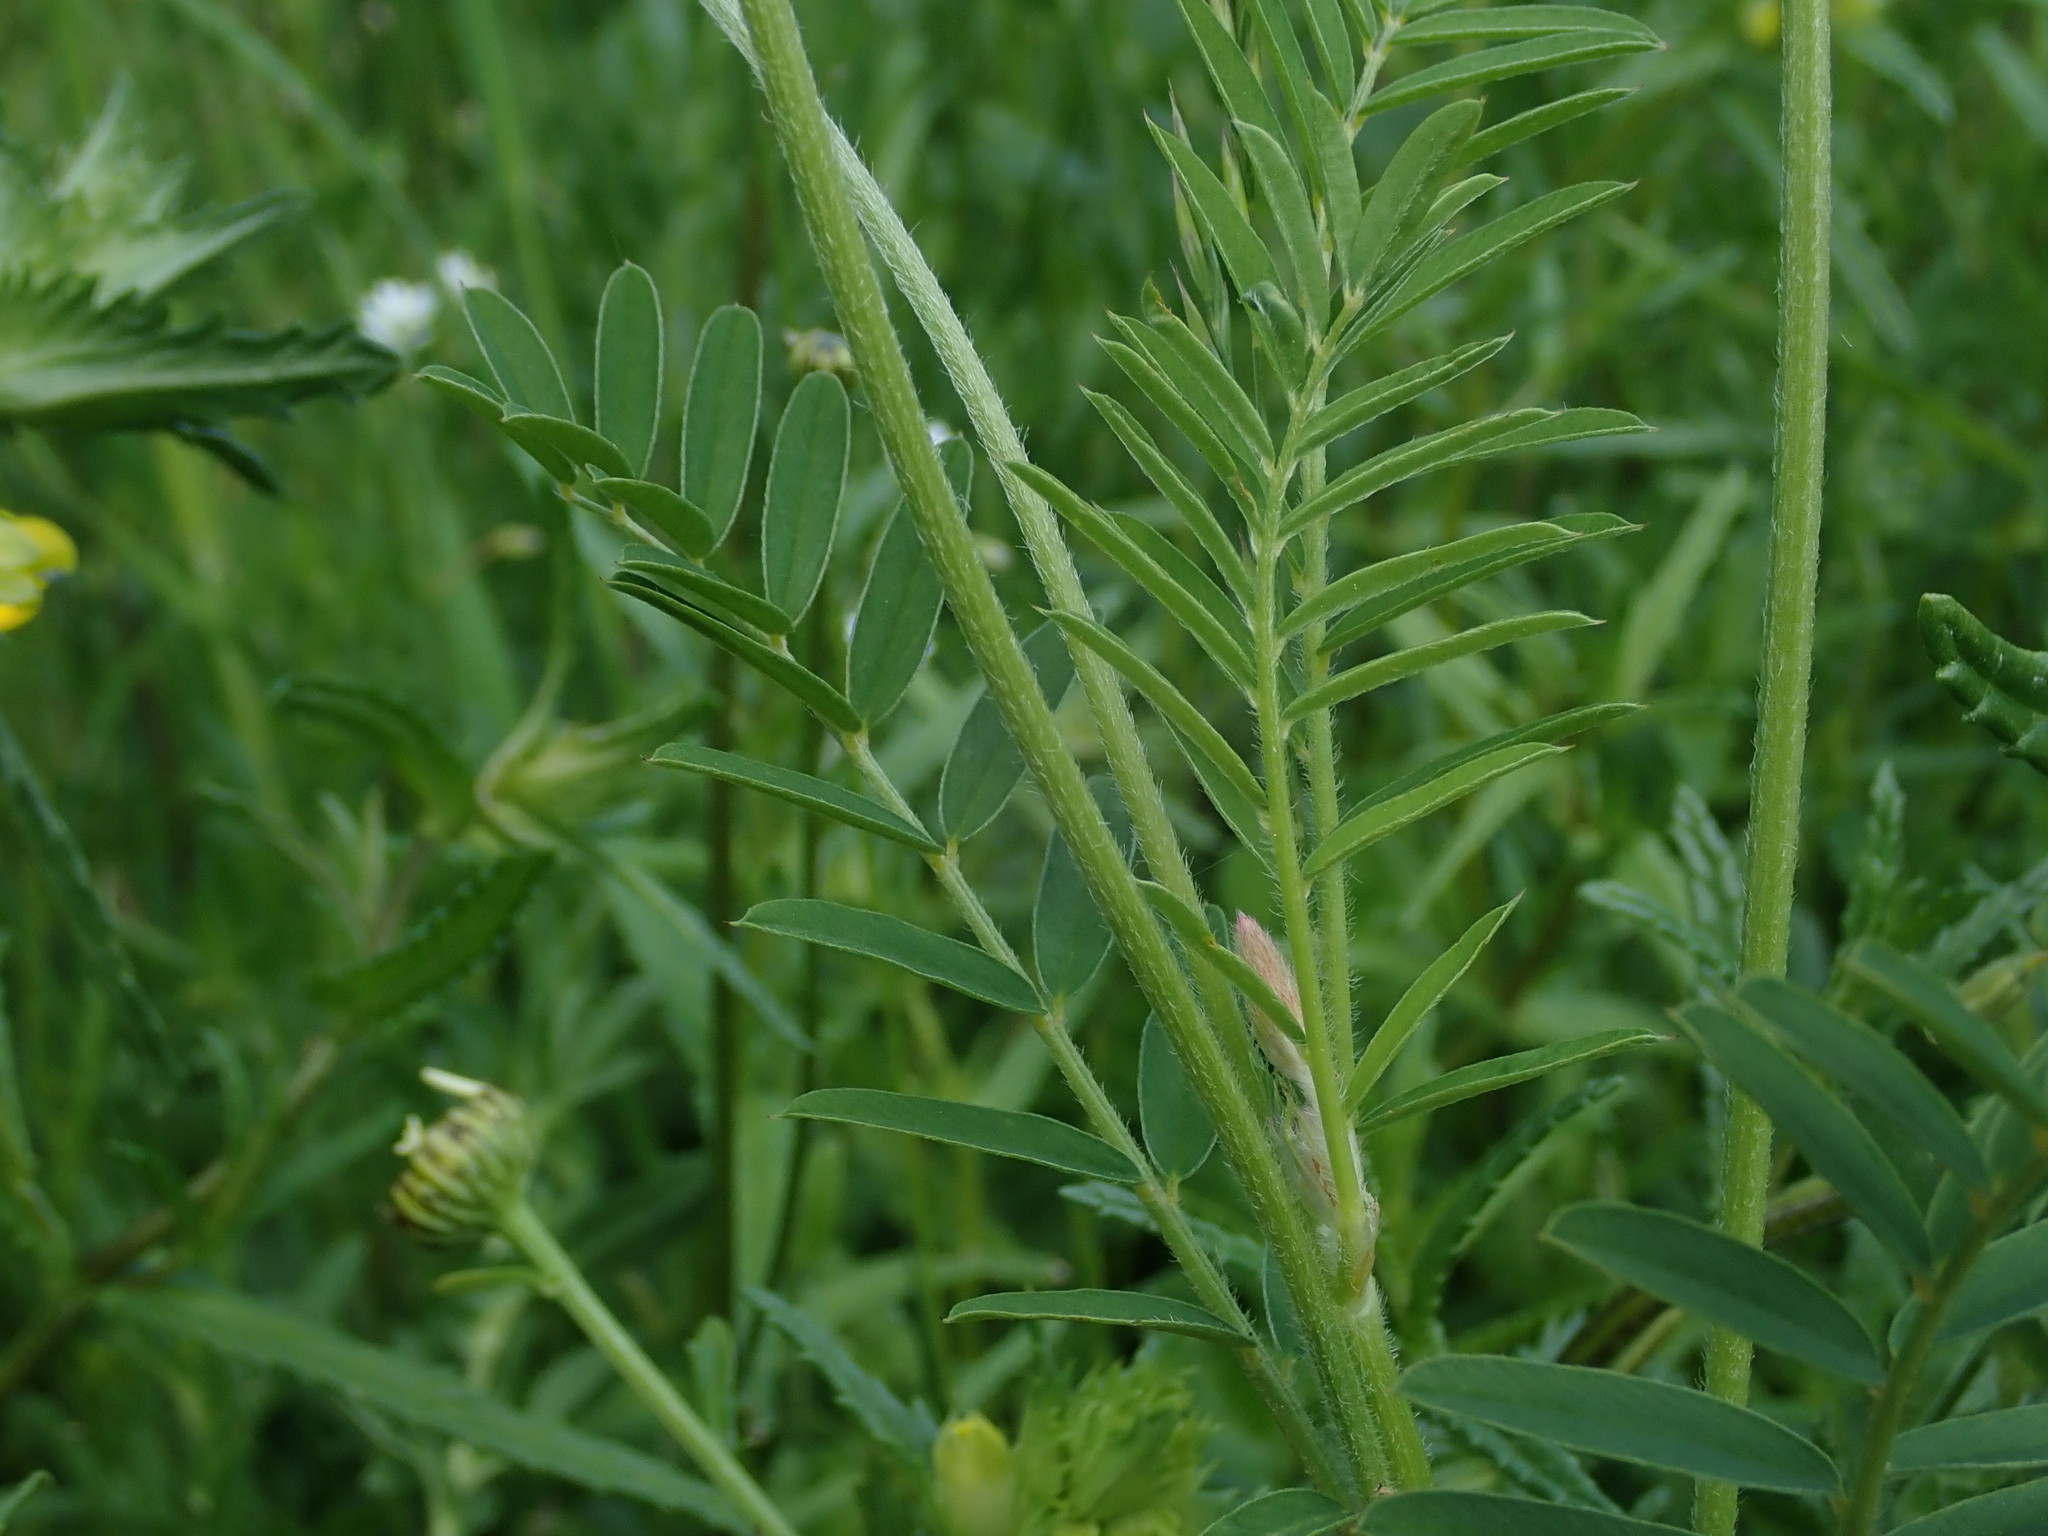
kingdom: Plantae
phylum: Tracheophyta
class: Magnoliopsida
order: Fabales
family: Fabaceae
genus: Onobrychis
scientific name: Onobrychis viciifolia
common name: Sainfoin
